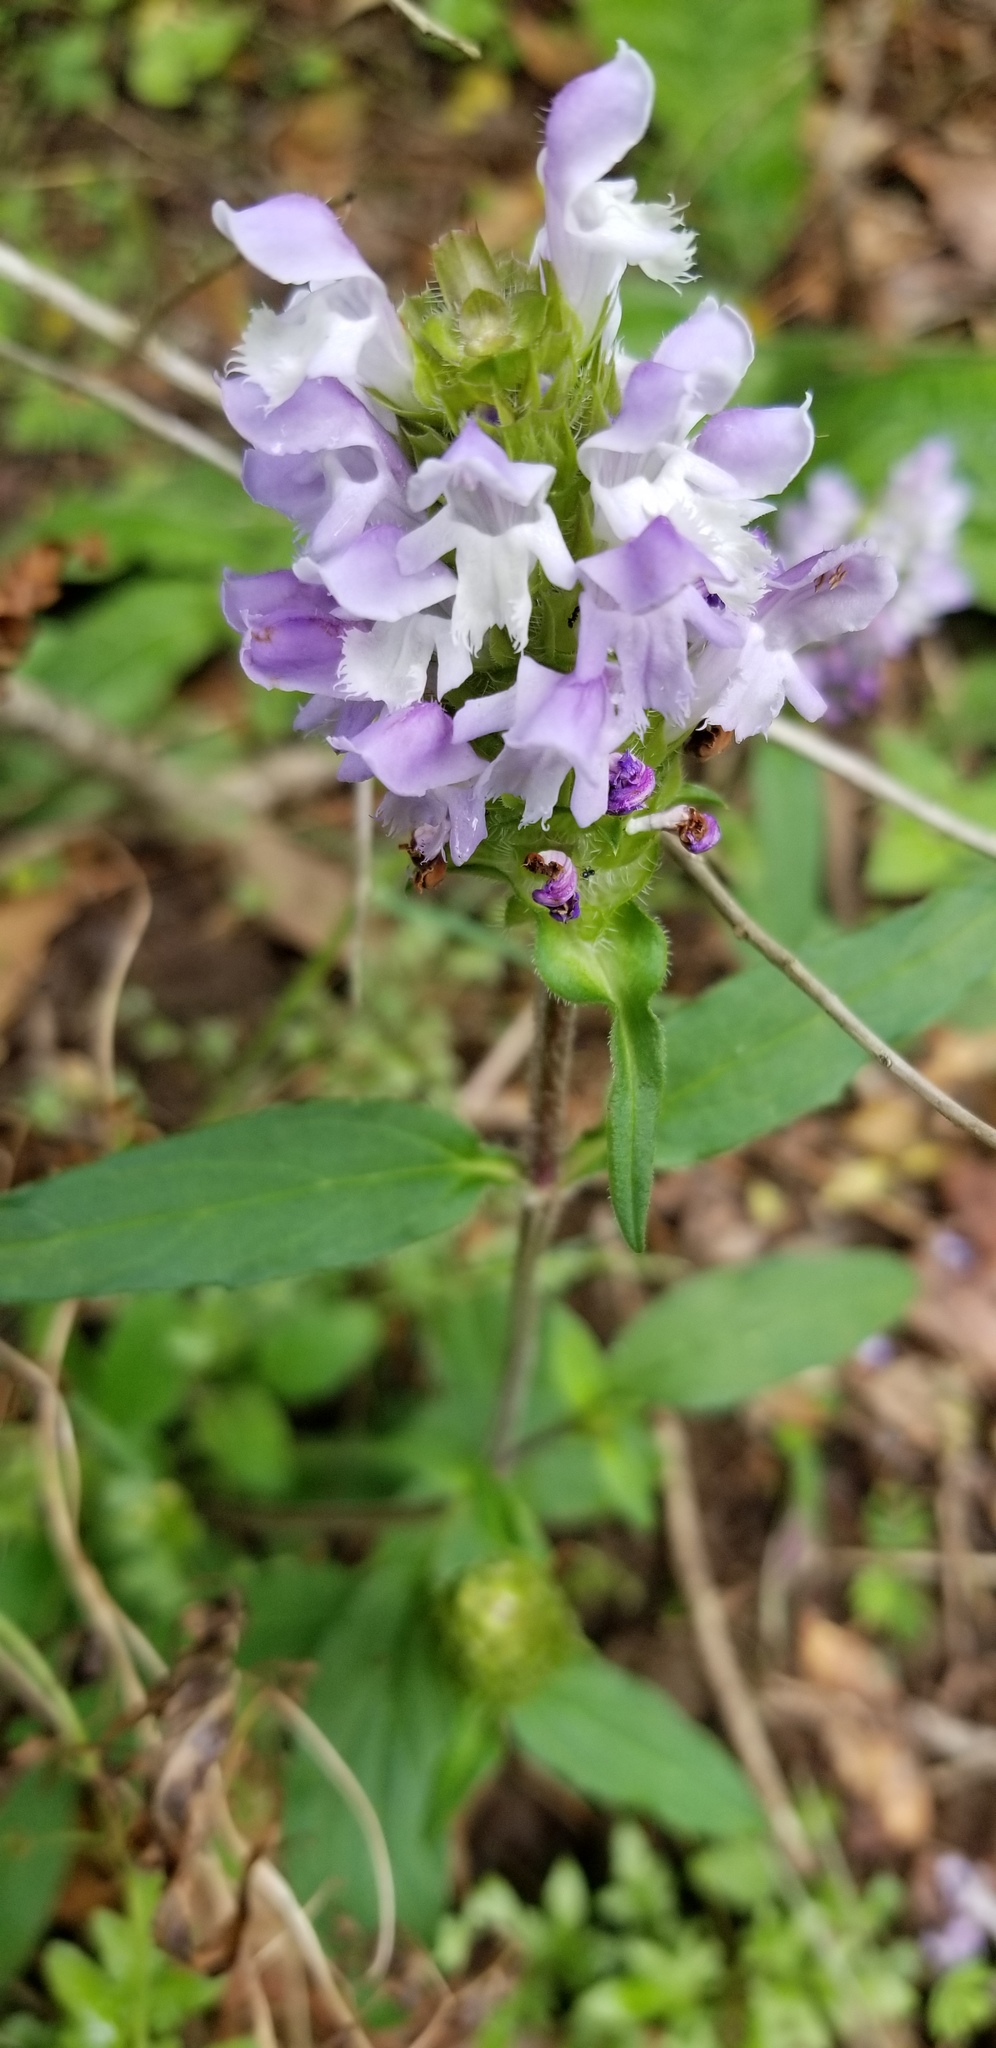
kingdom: Plantae
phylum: Tracheophyta
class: Magnoliopsida
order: Lamiales
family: Lamiaceae
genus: Prunella
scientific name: Prunella vulgaris
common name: Heal-all
